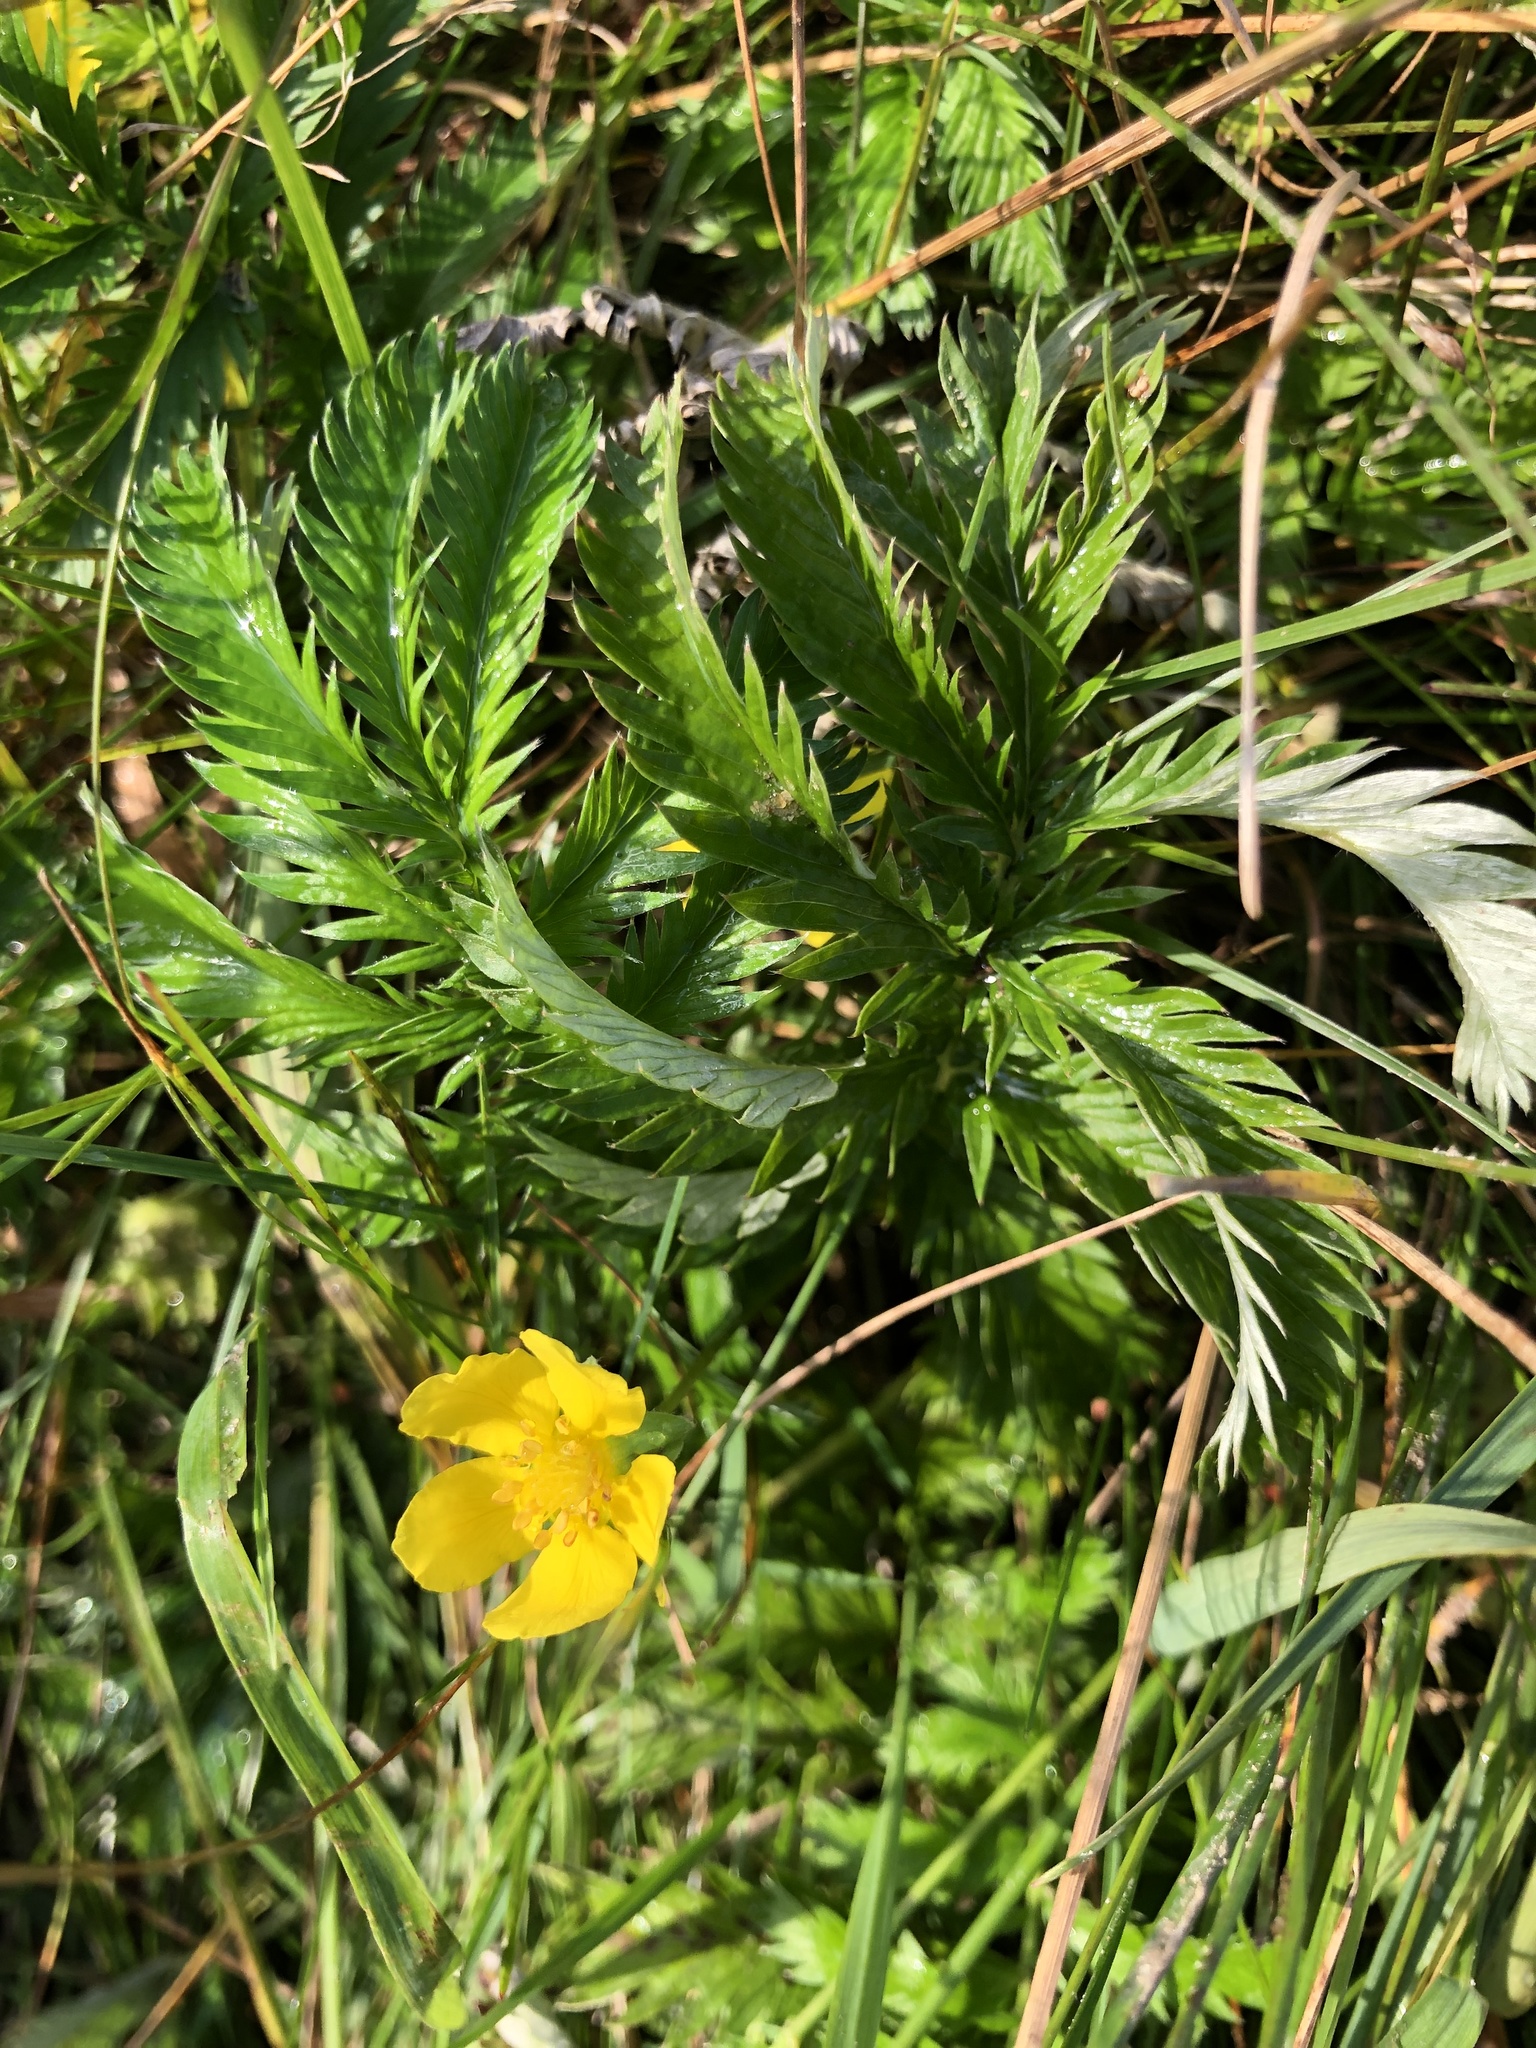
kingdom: Plantae
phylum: Tracheophyta
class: Magnoliopsida
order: Rosales
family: Rosaceae
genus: Argentina
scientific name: Argentina anserina
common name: Common silverweed
